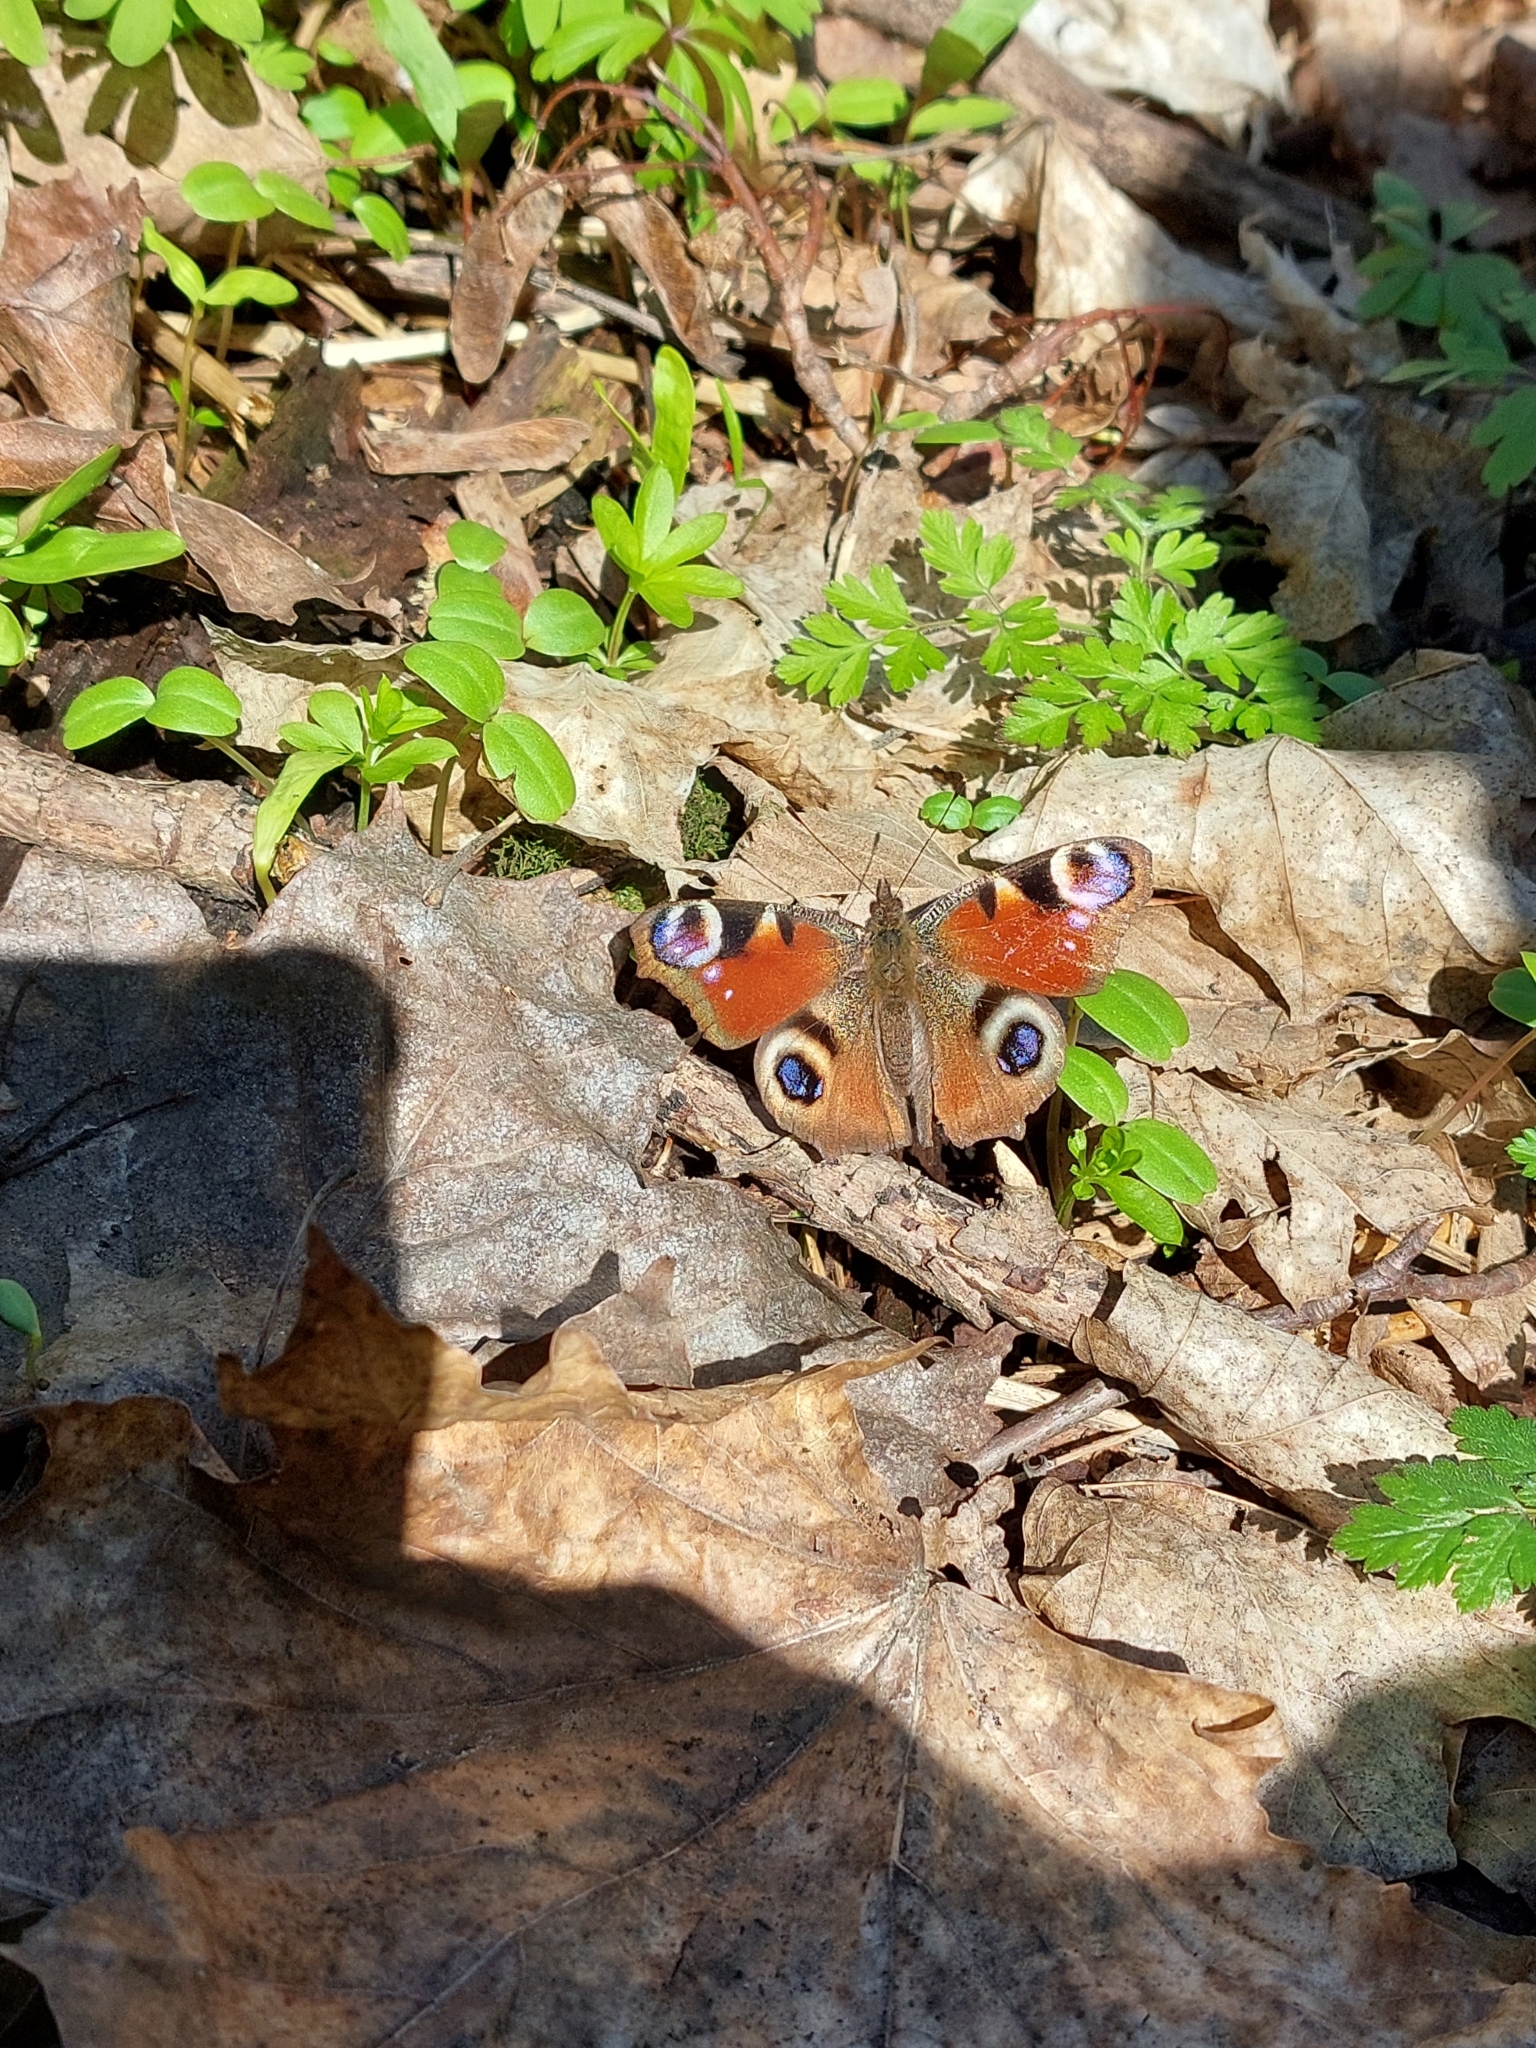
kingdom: Animalia
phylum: Arthropoda
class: Insecta
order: Lepidoptera
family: Nymphalidae
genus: Aglais
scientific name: Aglais io
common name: Peacock
